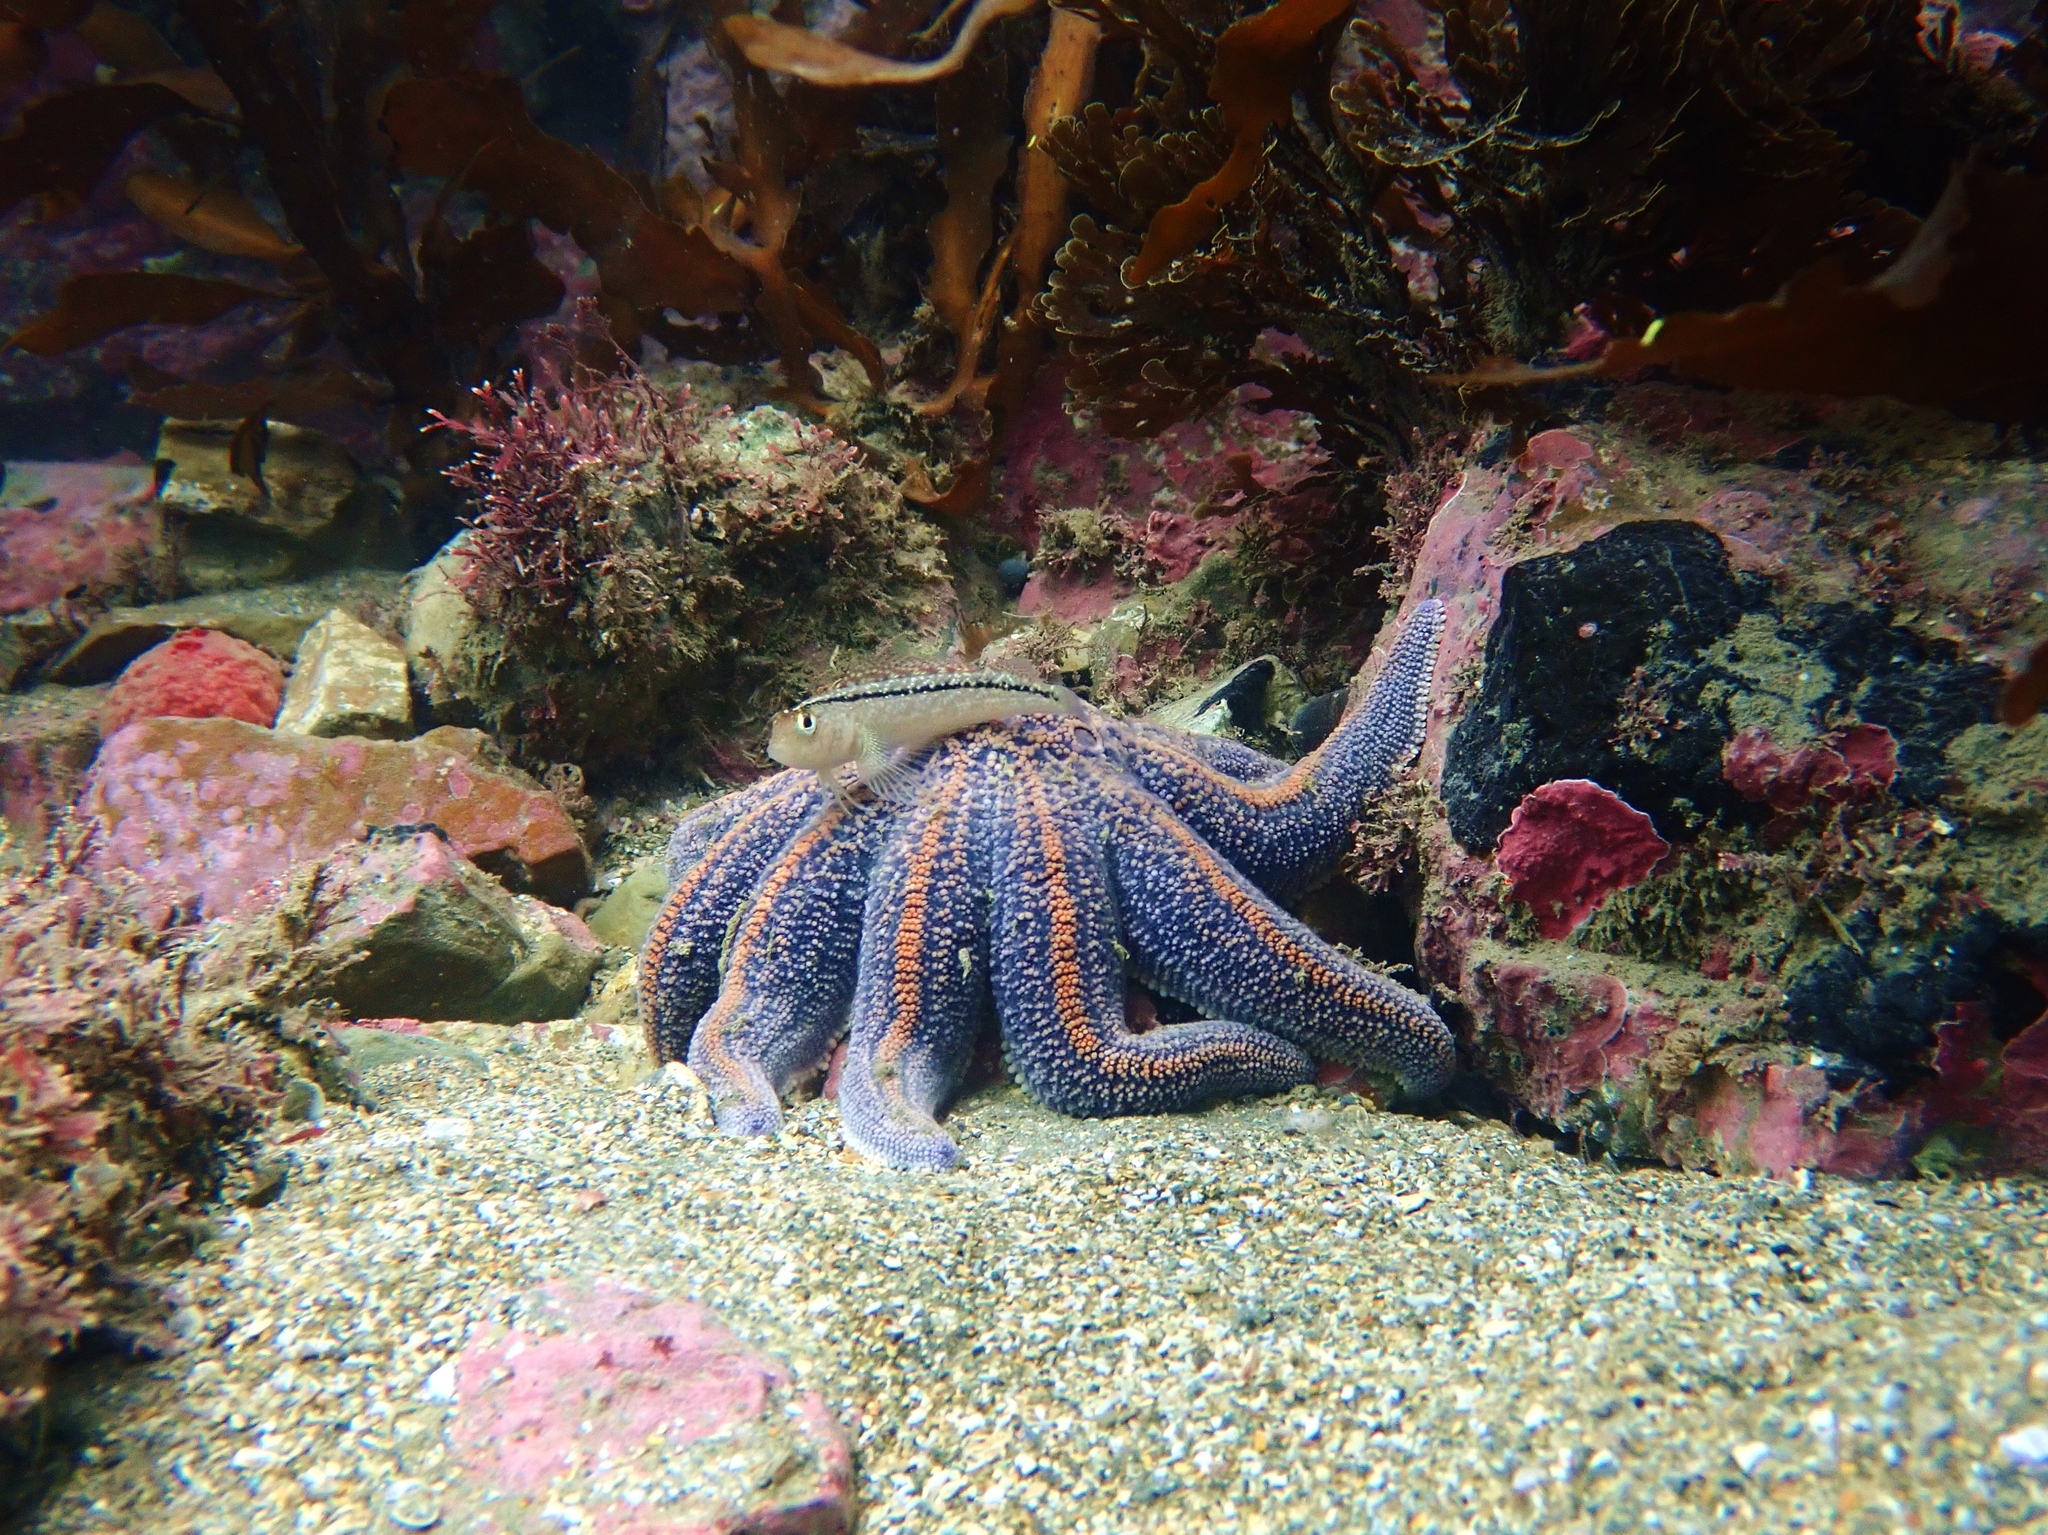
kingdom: Animalia
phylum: Echinodermata
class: Asteroidea
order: Forcipulatida
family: Stichasteridae
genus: Stichaster
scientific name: Stichaster australis
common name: Reef starfish
